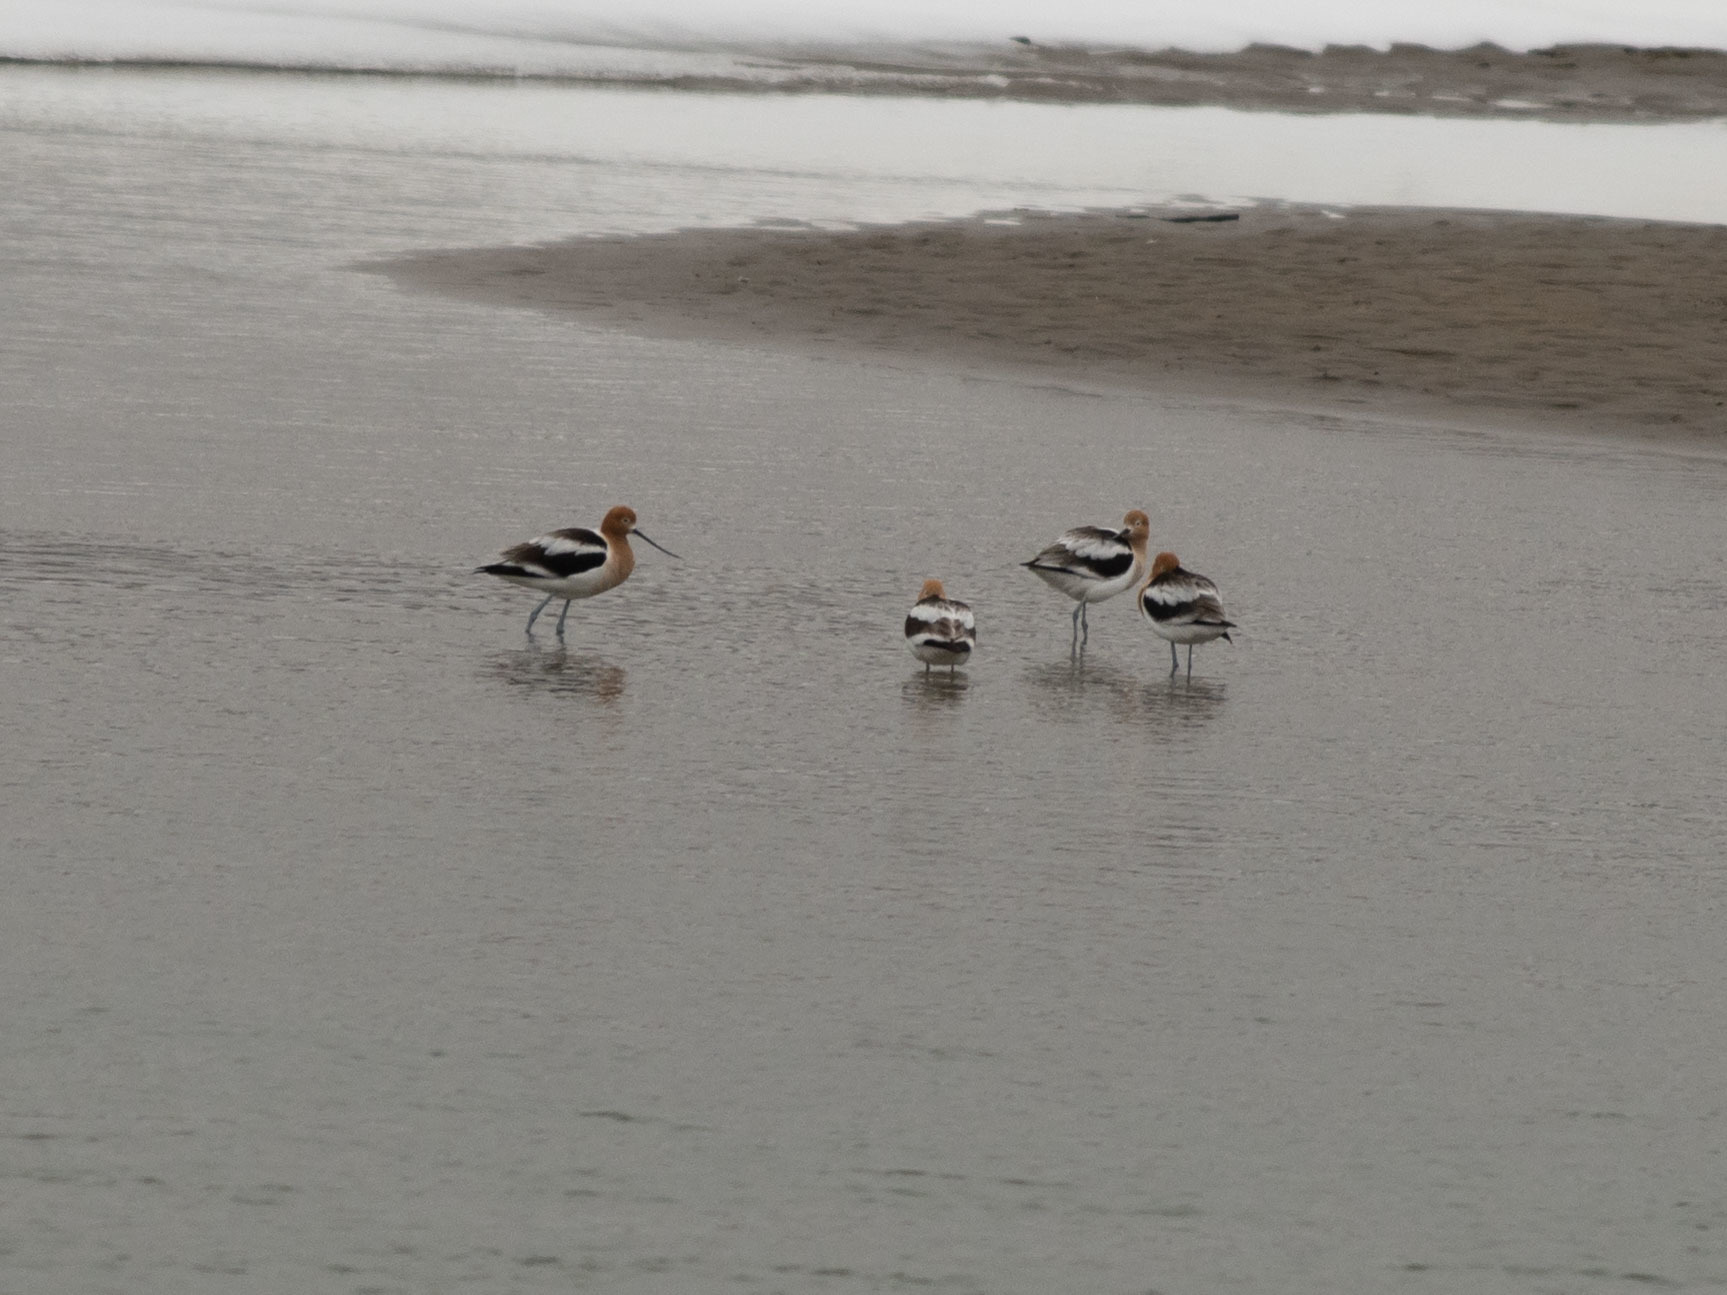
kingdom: Animalia
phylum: Chordata
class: Aves
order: Charadriiformes
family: Recurvirostridae
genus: Recurvirostra
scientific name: Recurvirostra americana
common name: American avocet
